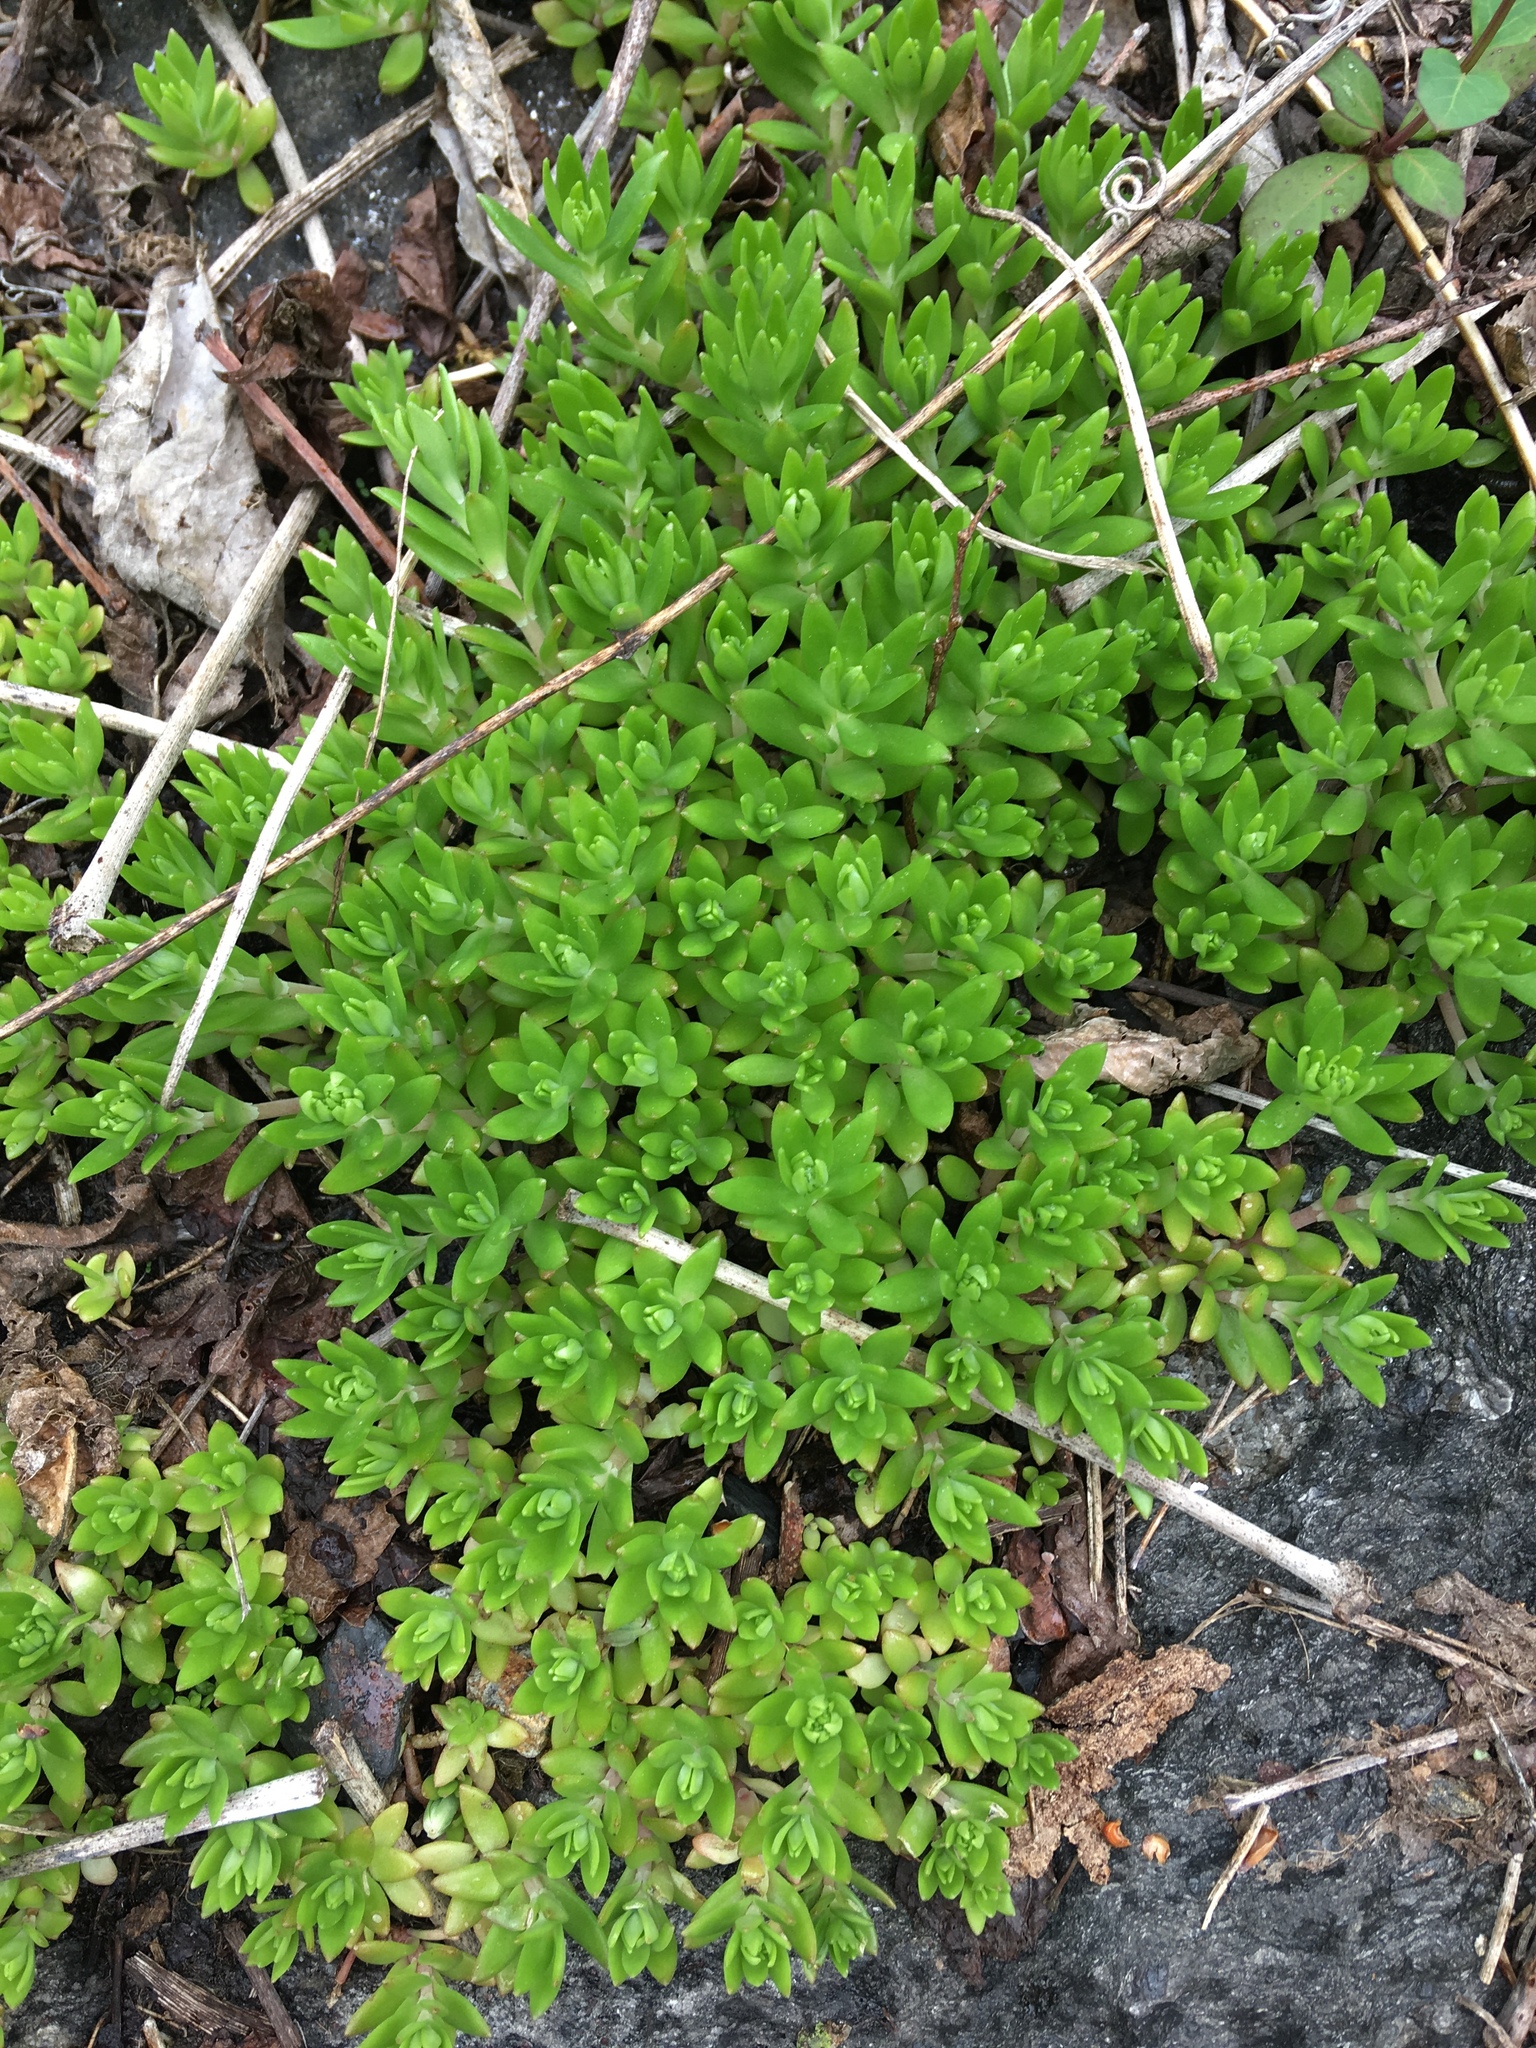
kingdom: Plantae
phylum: Tracheophyta
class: Magnoliopsida
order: Saxifragales
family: Crassulaceae
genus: Sedum
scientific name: Sedum sarmentosum
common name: Stringy stonecrop
